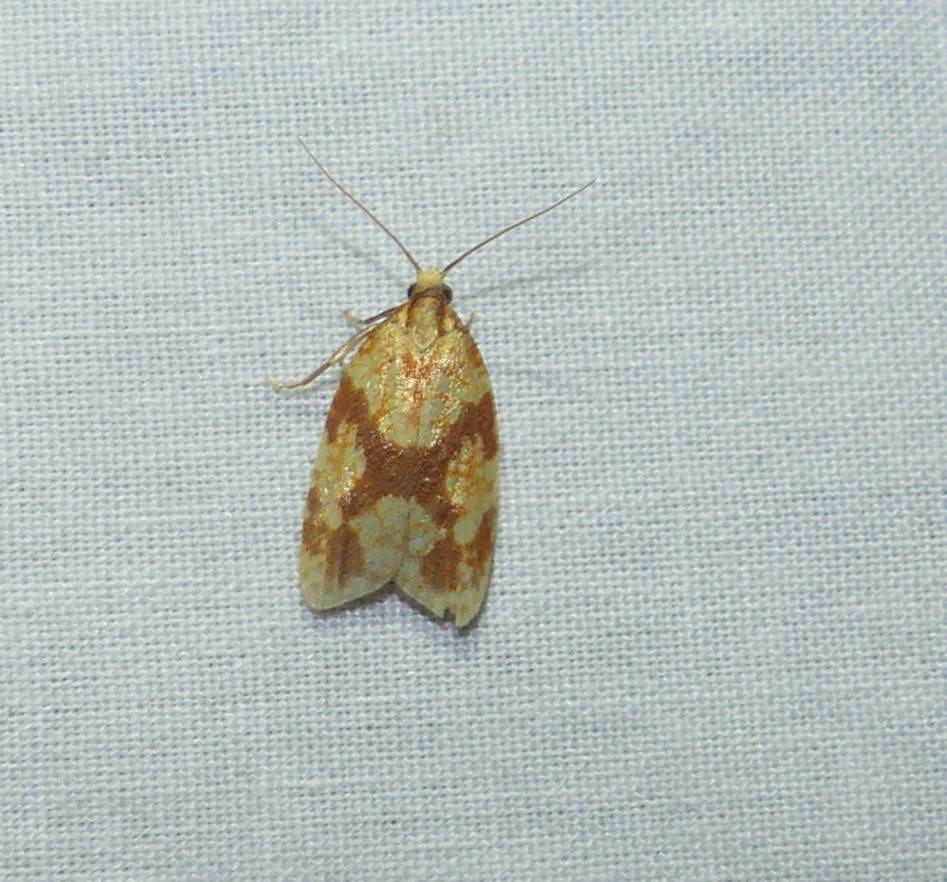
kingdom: Animalia
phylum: Arthropoda
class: Insecta
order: Lepidoptera
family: Tortricidae
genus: Sparganothis
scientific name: Sparganothis sulfureana
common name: Sparganothis fruitworm moth
